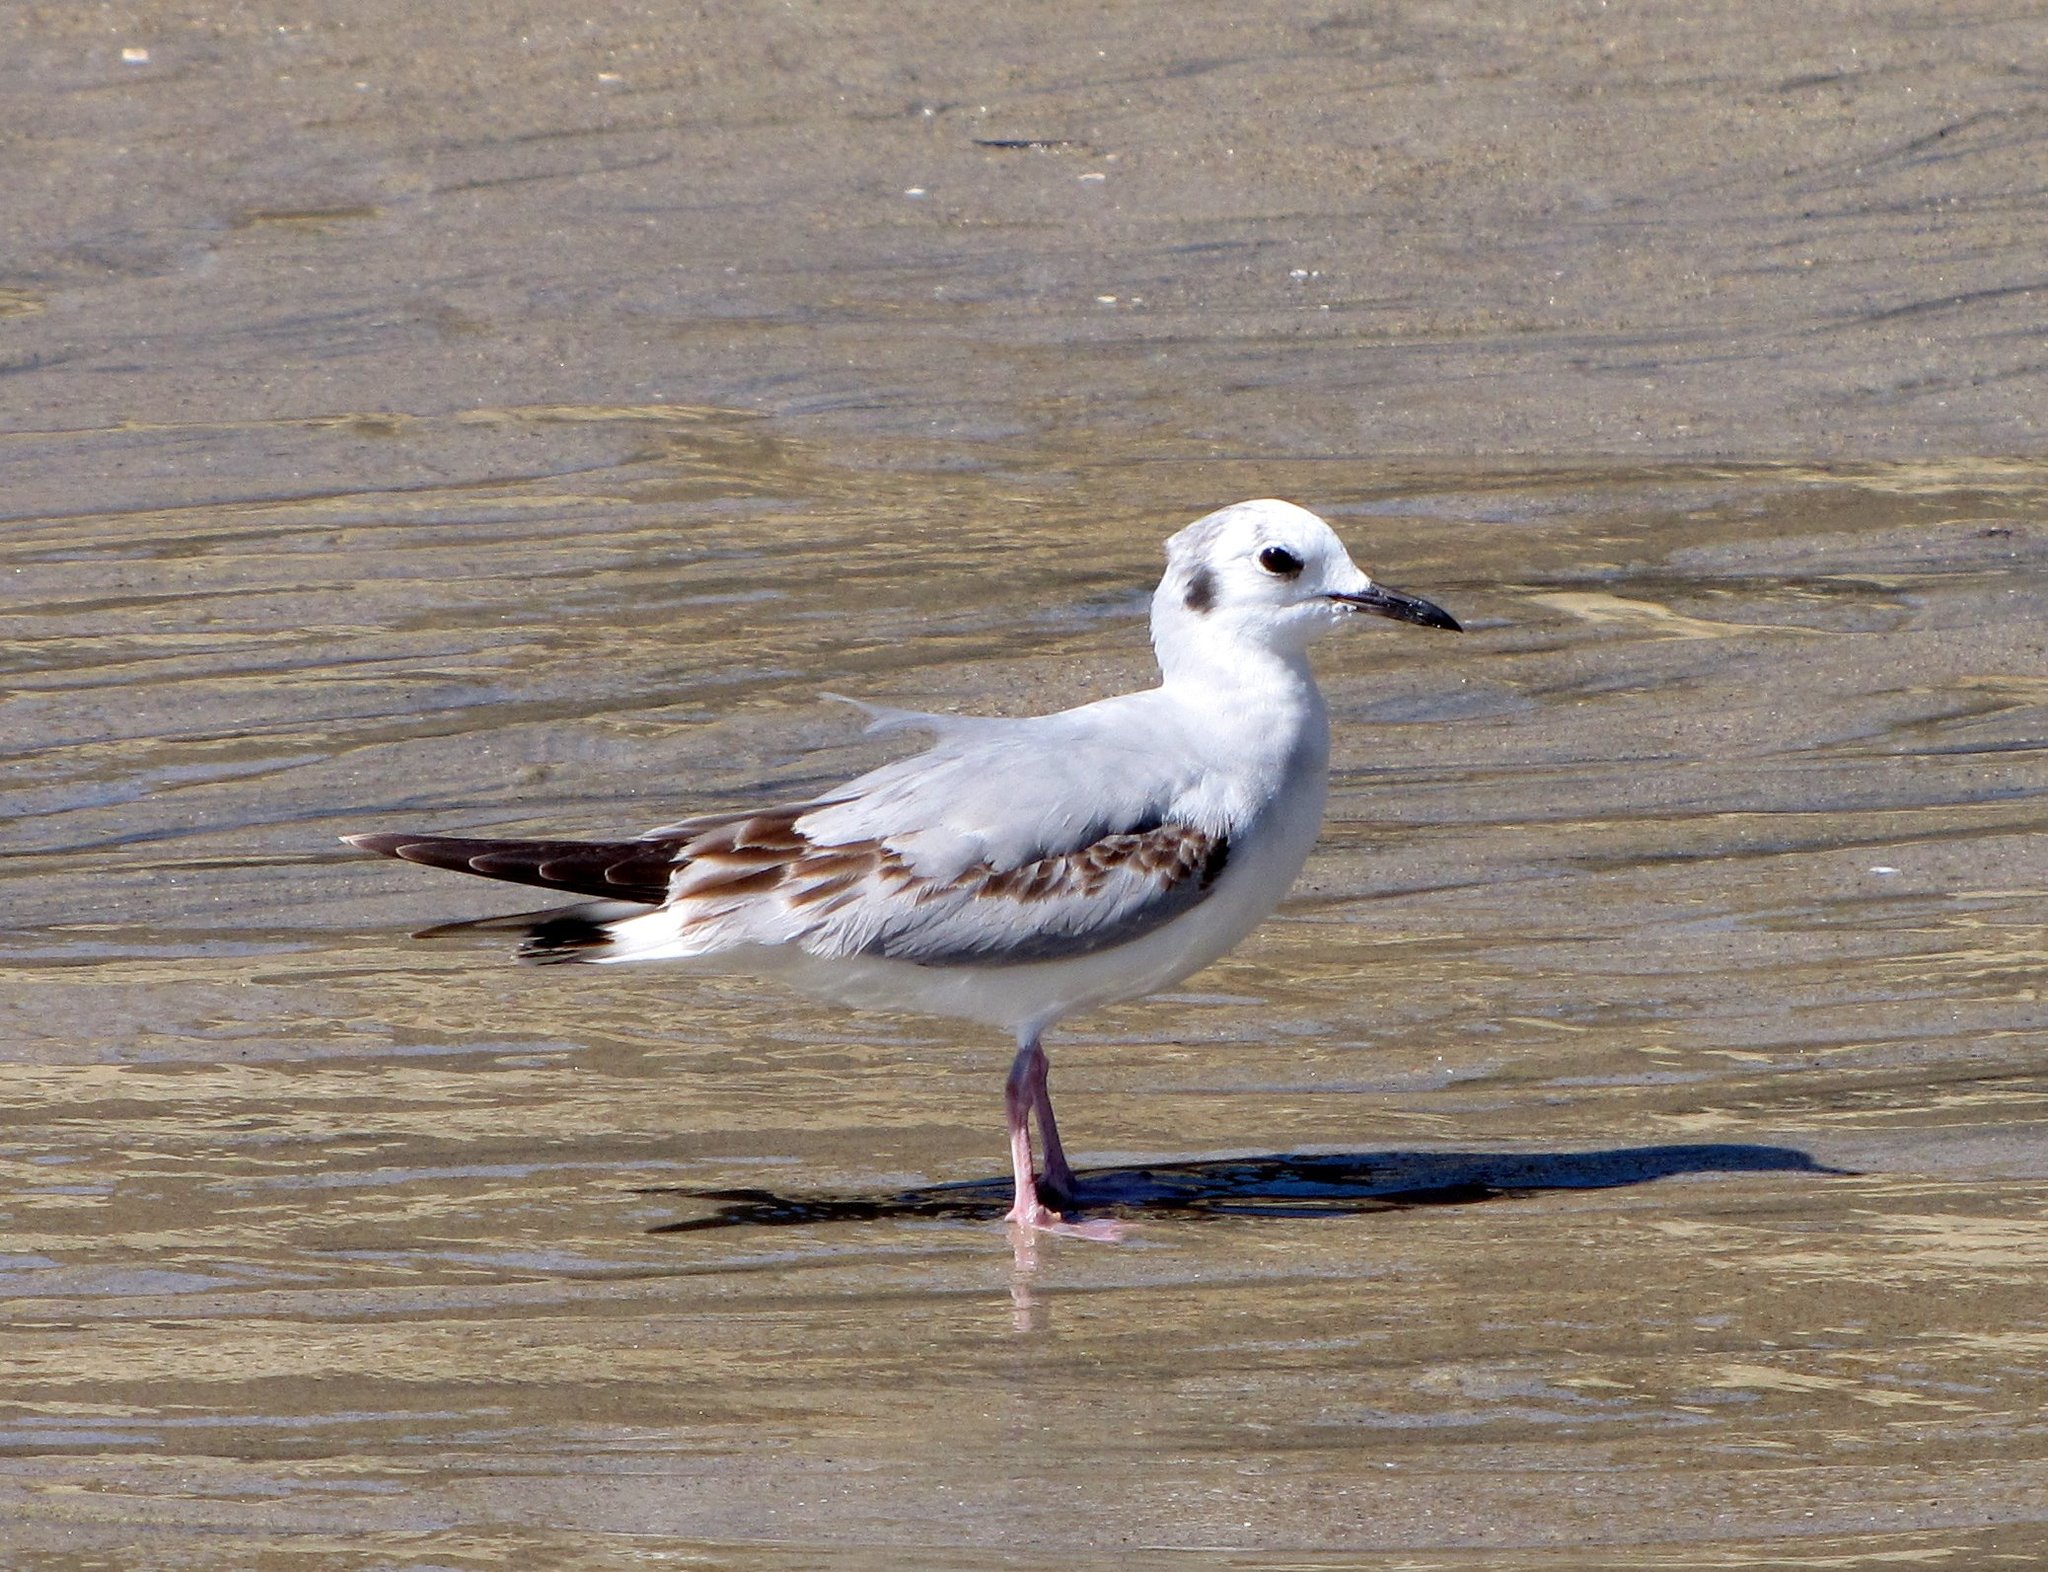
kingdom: Animalia
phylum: Chordata
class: Aves
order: Charadriiformes
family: Laridae
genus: Chroicocephalus
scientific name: Chroicocephalus philadelphia
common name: Bonaparte's gull
